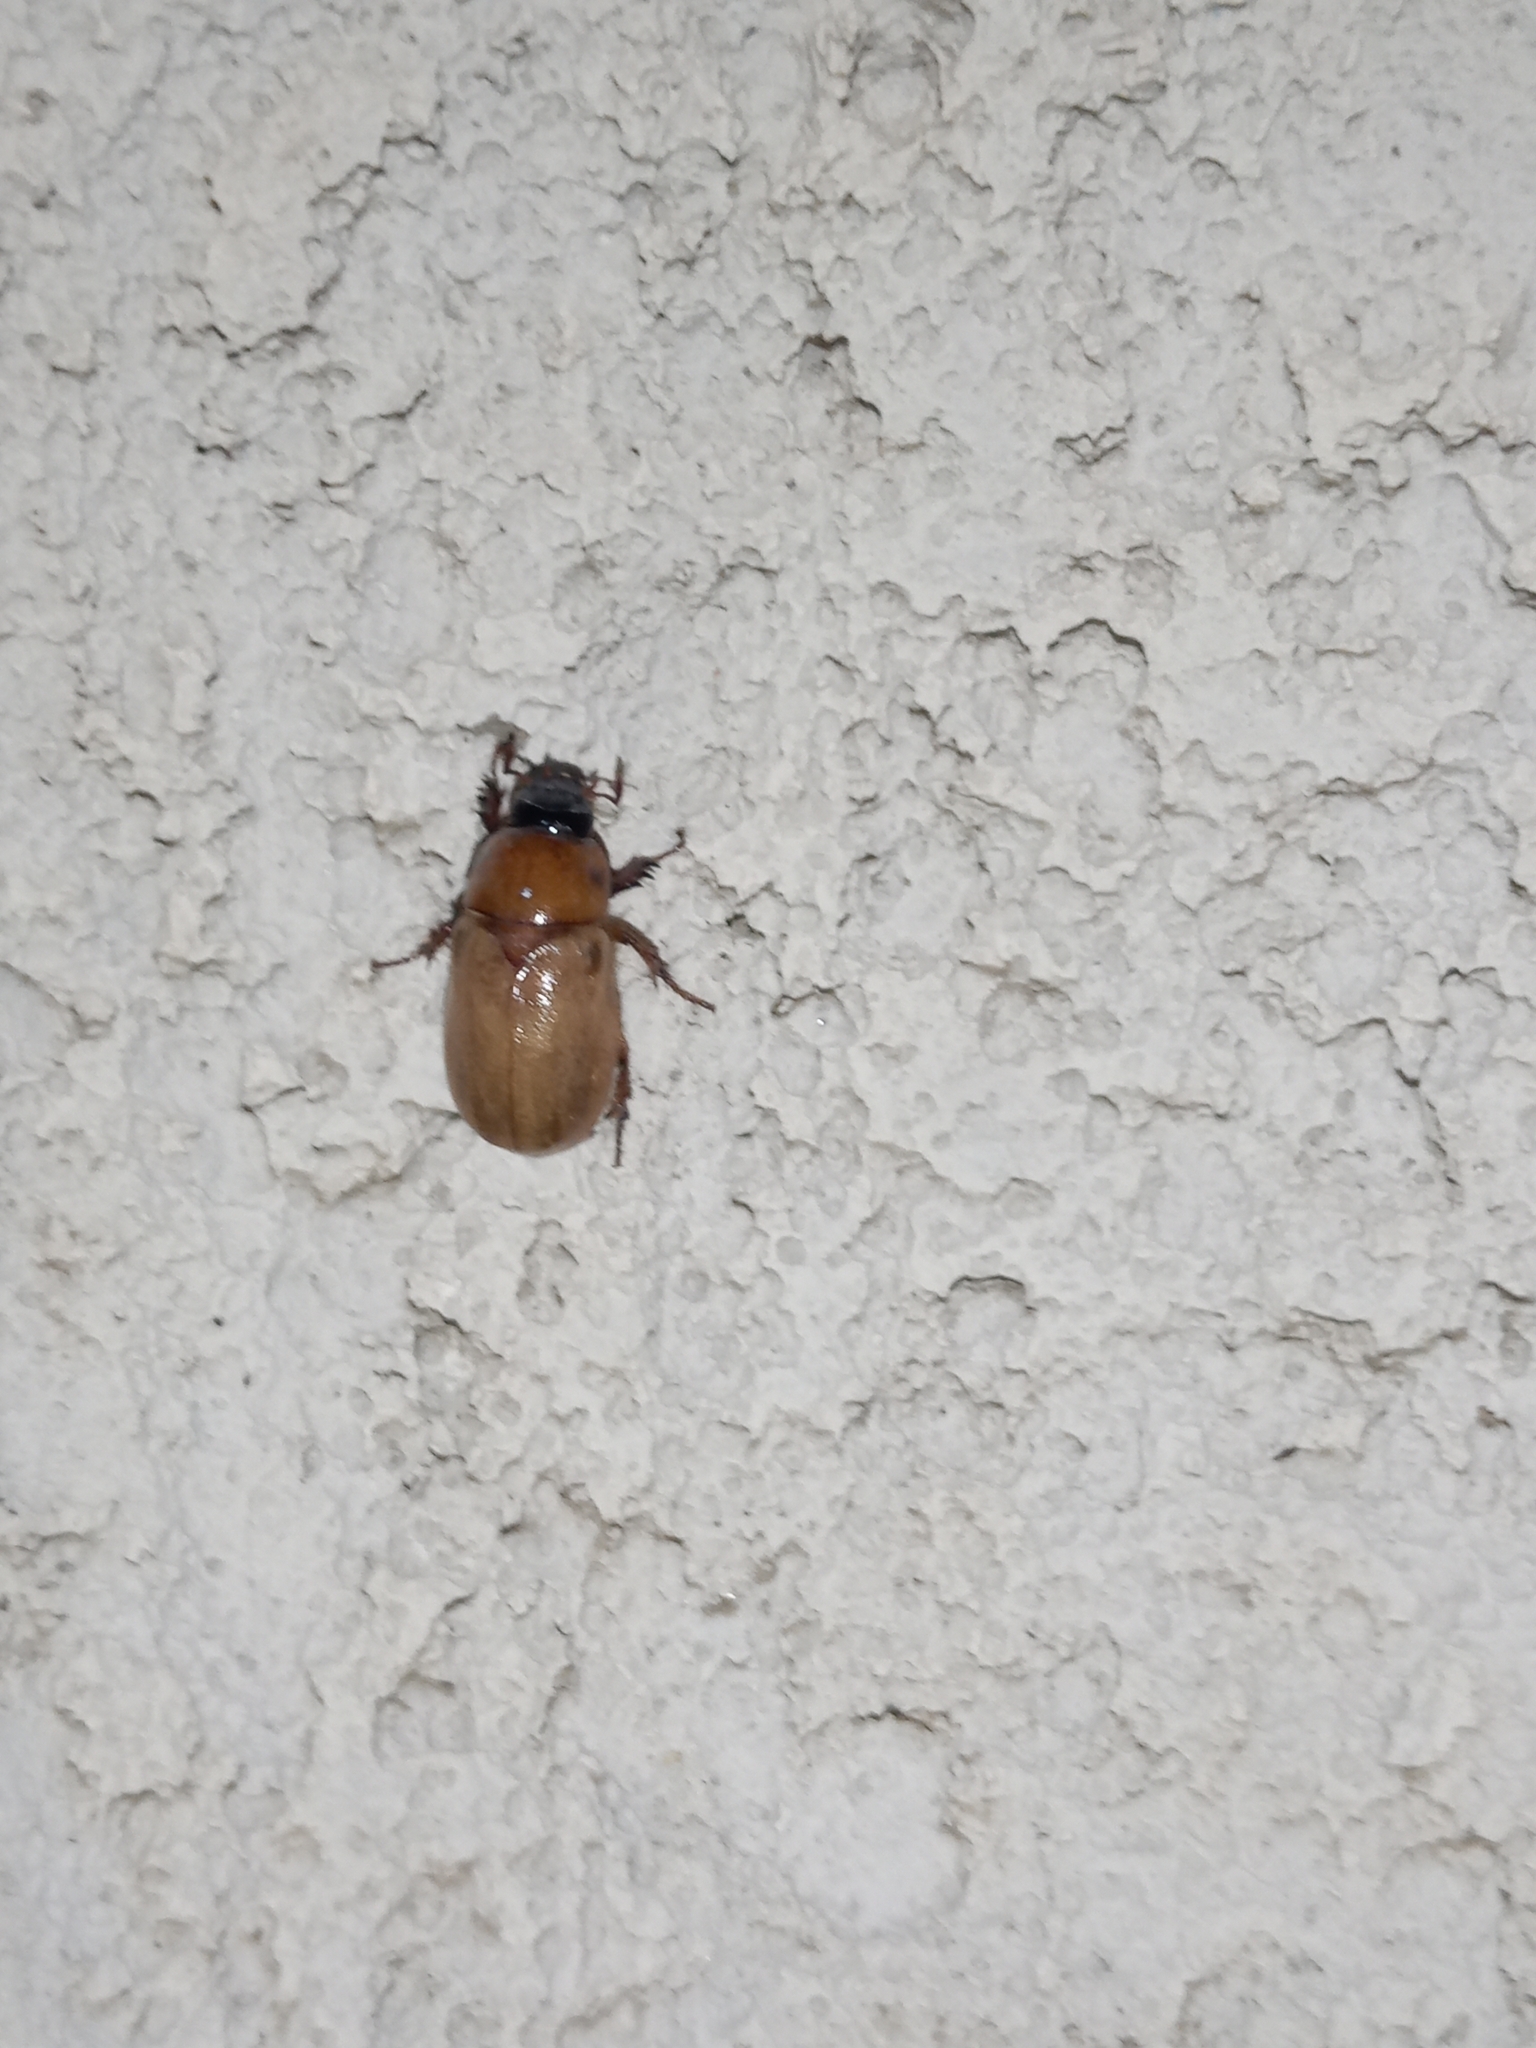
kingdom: Animalia
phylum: Arthropoda
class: Insecta
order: Coleoptera
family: Scarabaeidae
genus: Cyclocephala
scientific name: Cyclocephala melanocephala
